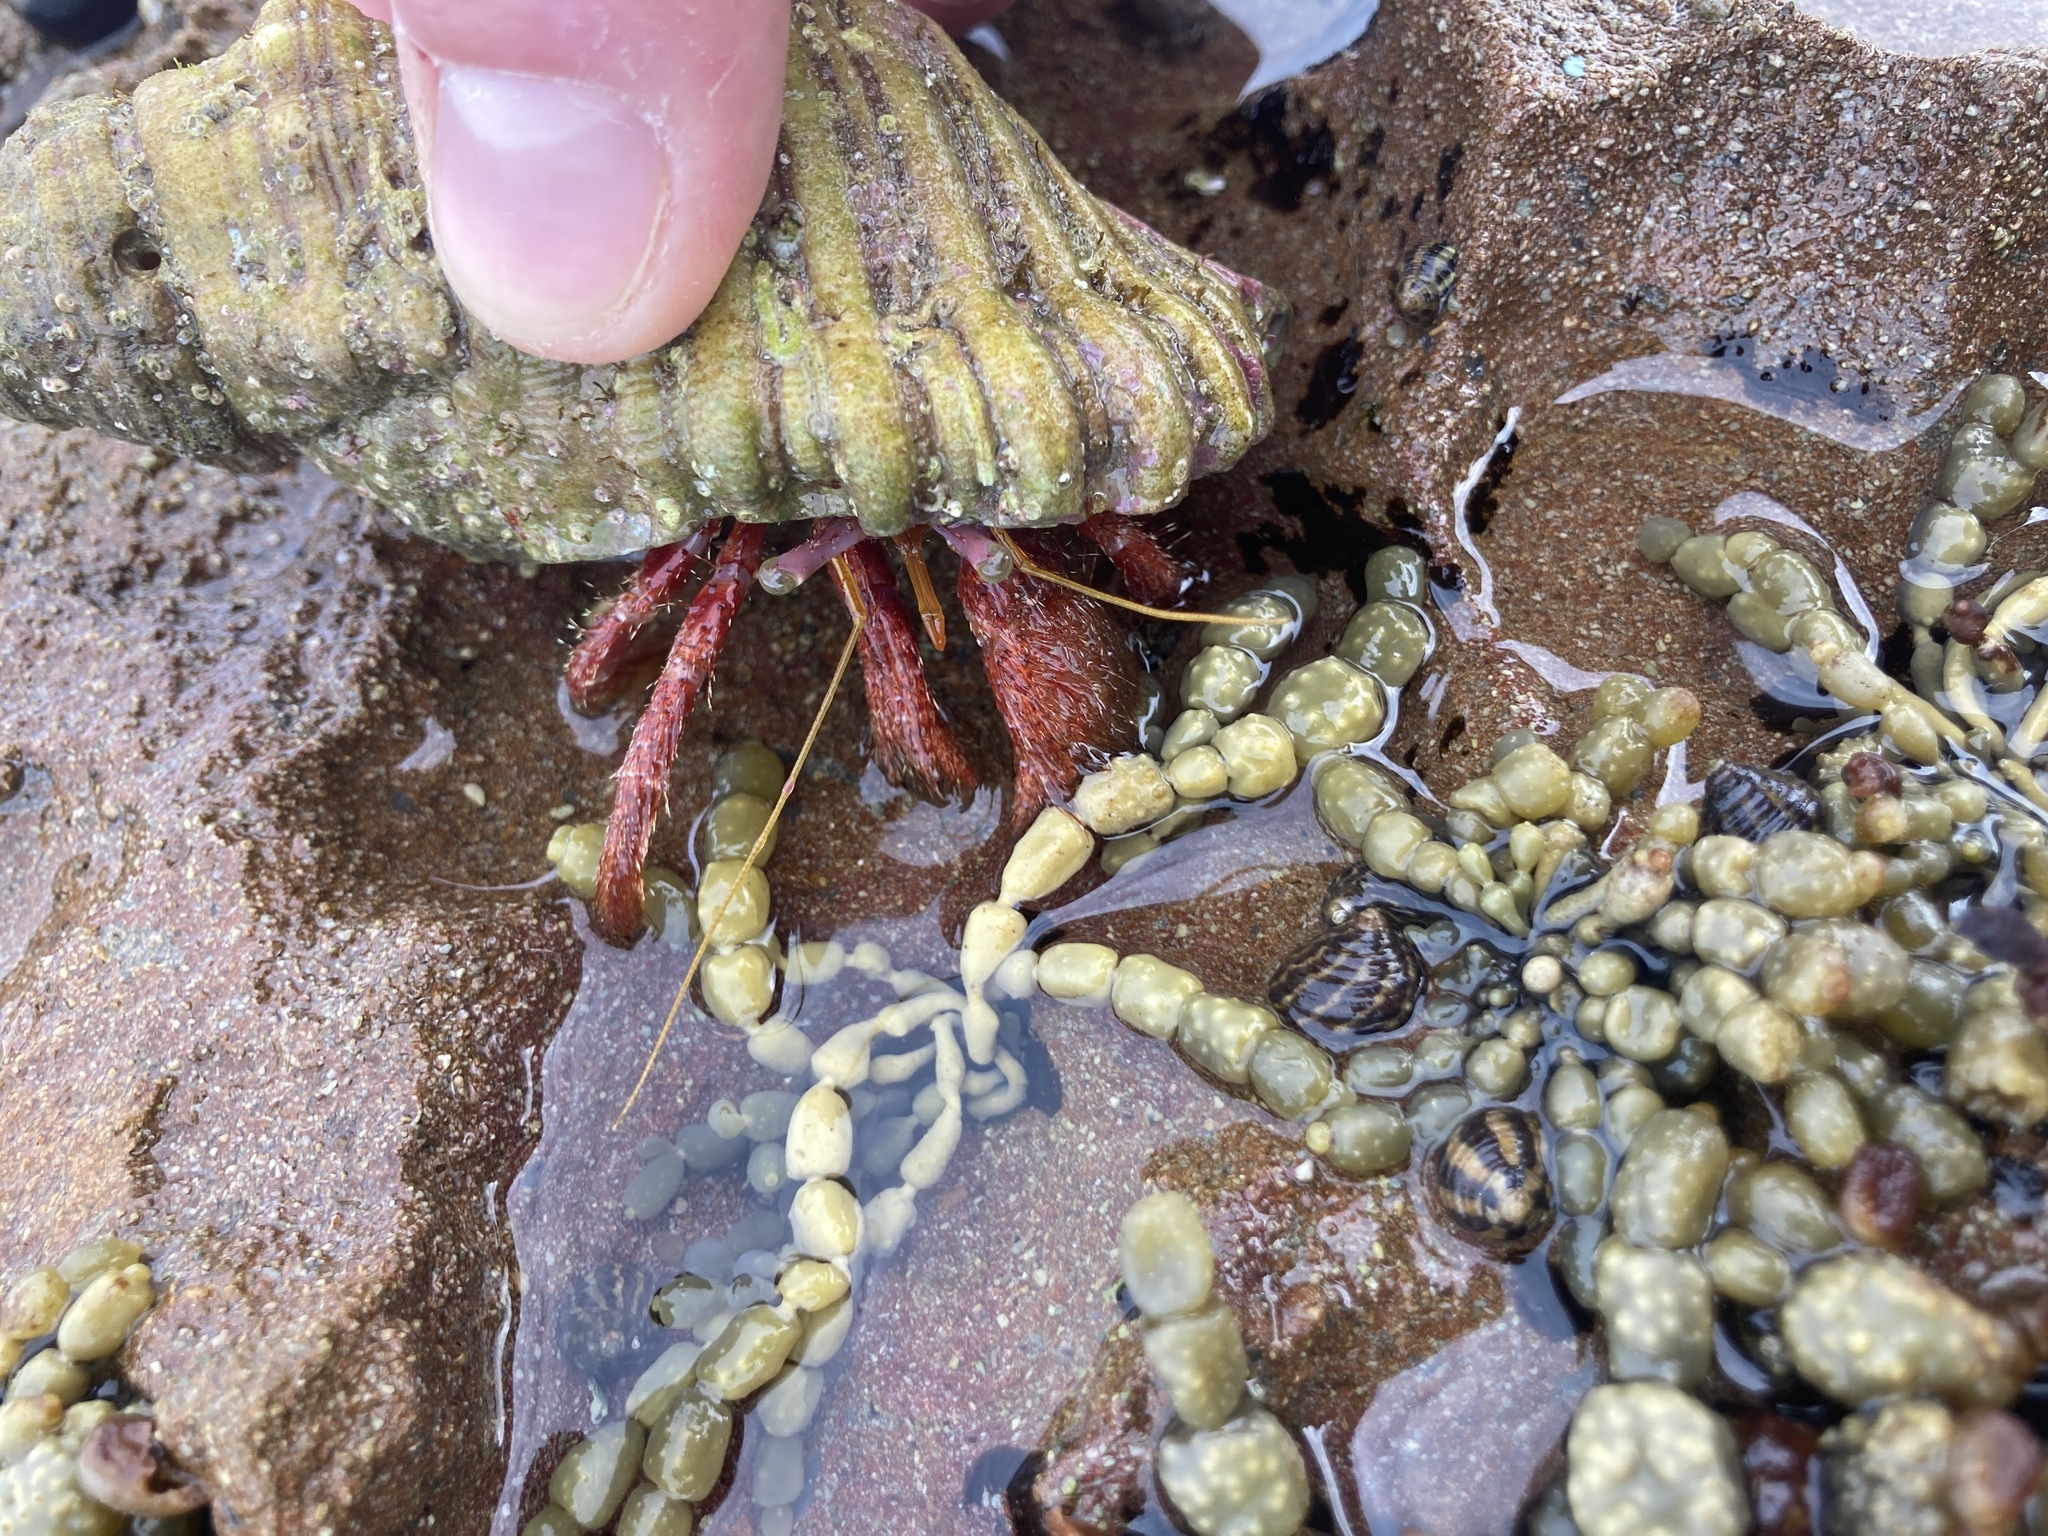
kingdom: Animalia
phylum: Arthropoda
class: Malacostraca
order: Decapoda
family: Diogenidae
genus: Dardanus
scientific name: Dardanus crassimanus
